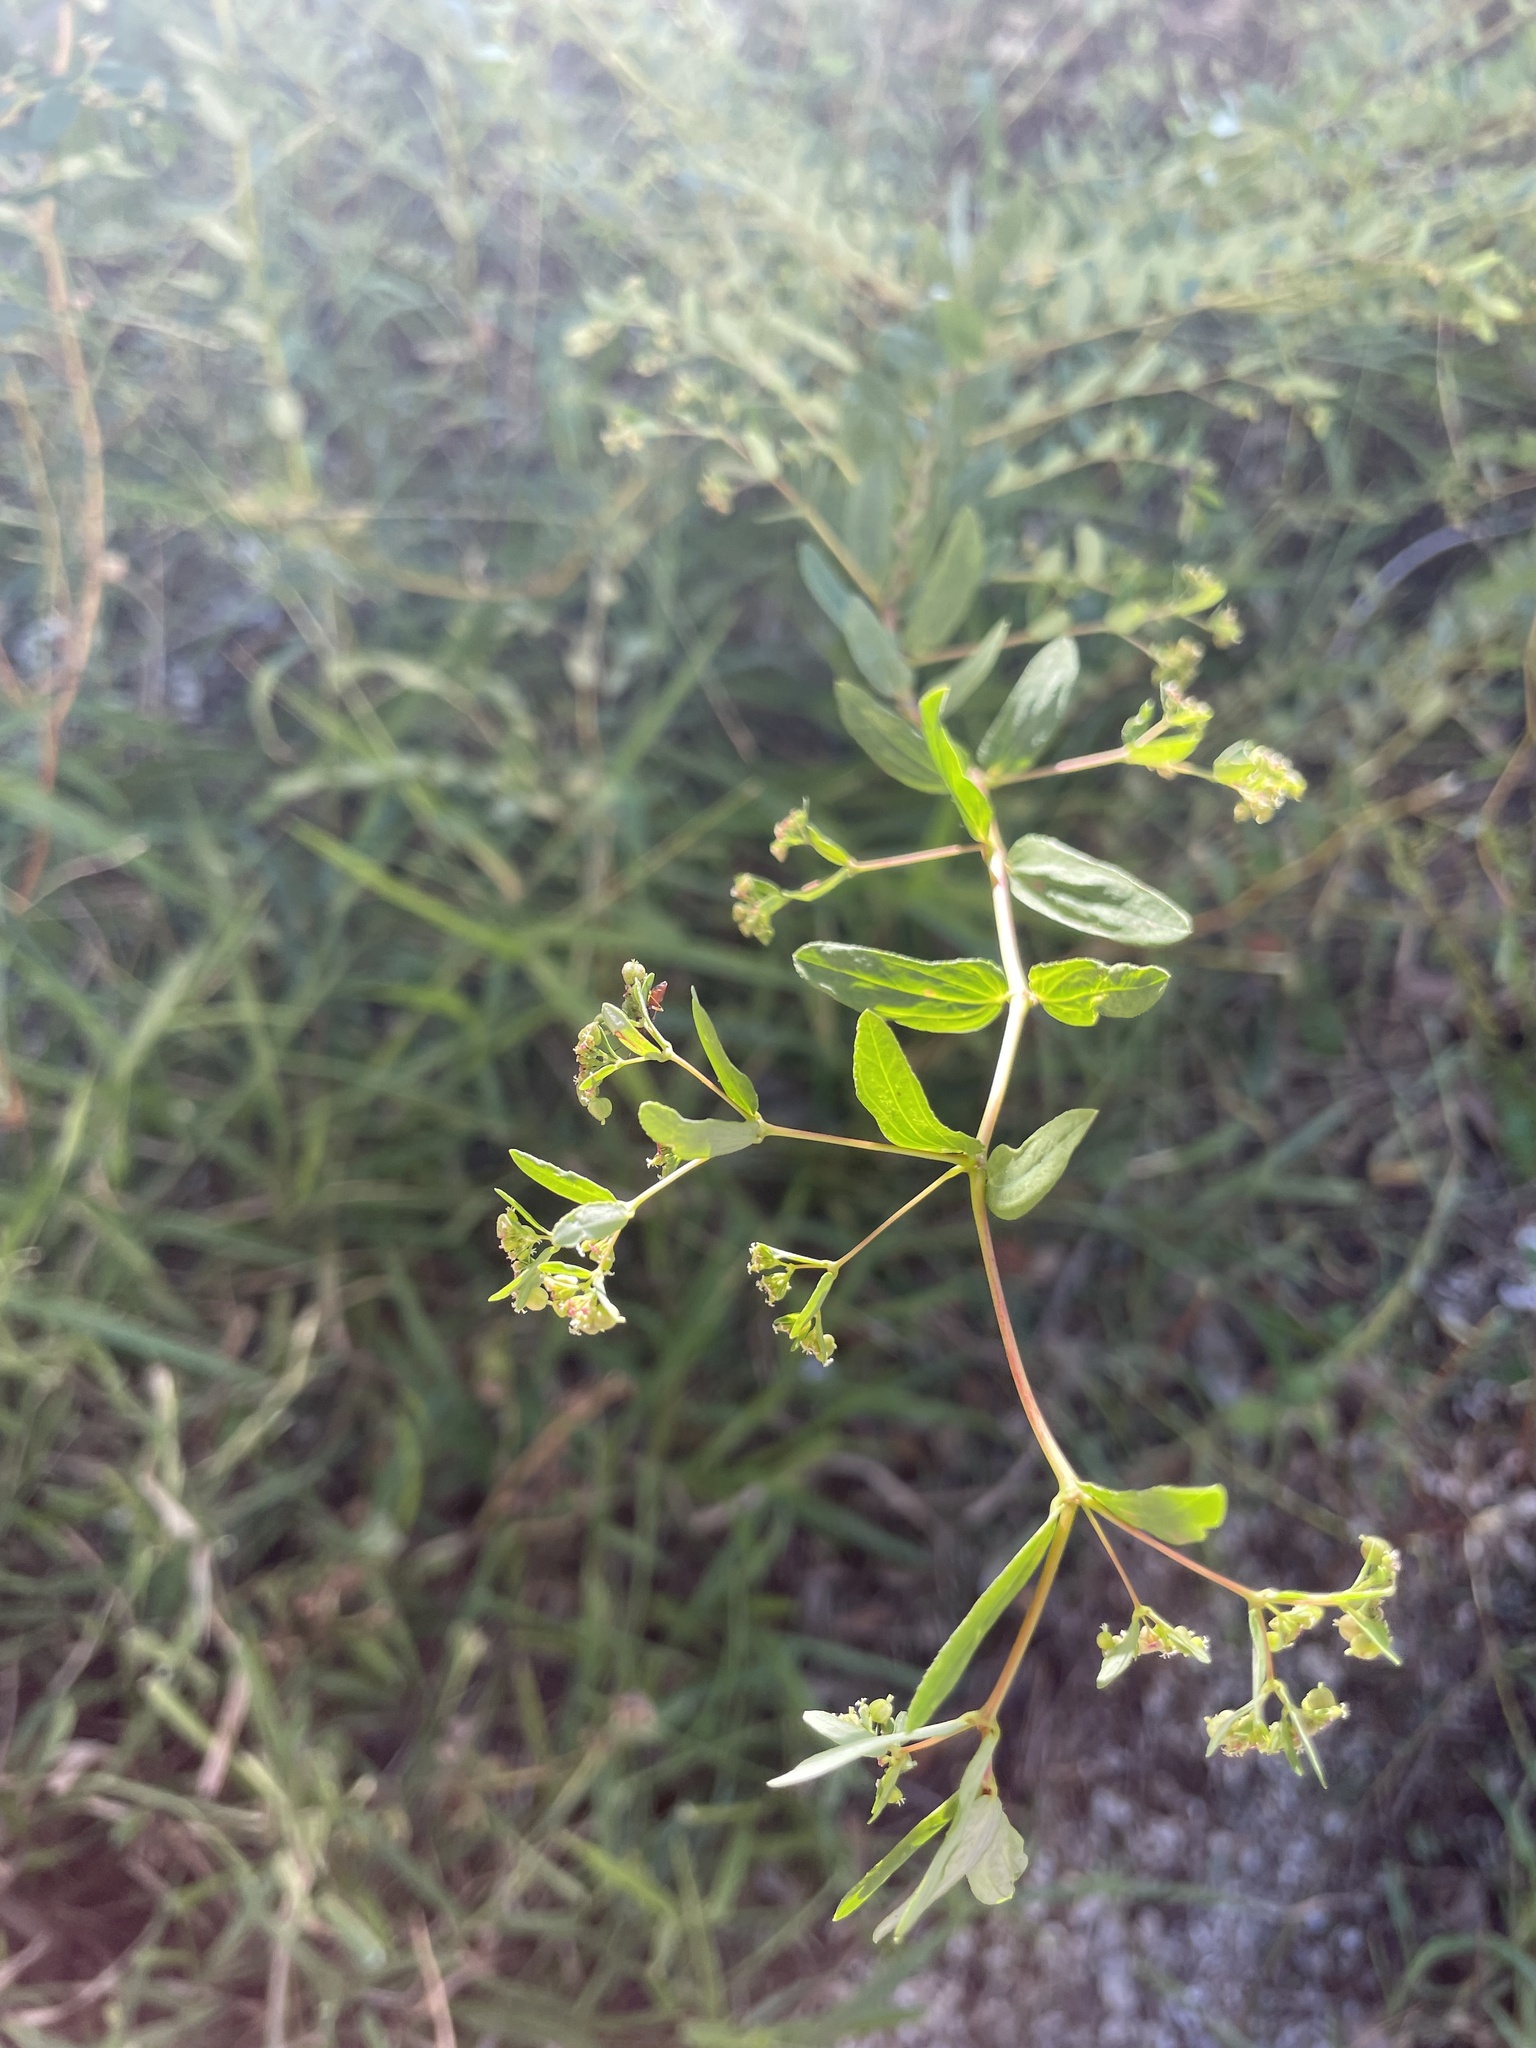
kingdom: Plantae
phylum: Tracheophyta
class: Magnoliopsida
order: Malpighiales
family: Euphorbiaceae
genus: Euphorbia
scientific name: Euphorbia hyssopifolia
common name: Hyssopleaf sandmat
